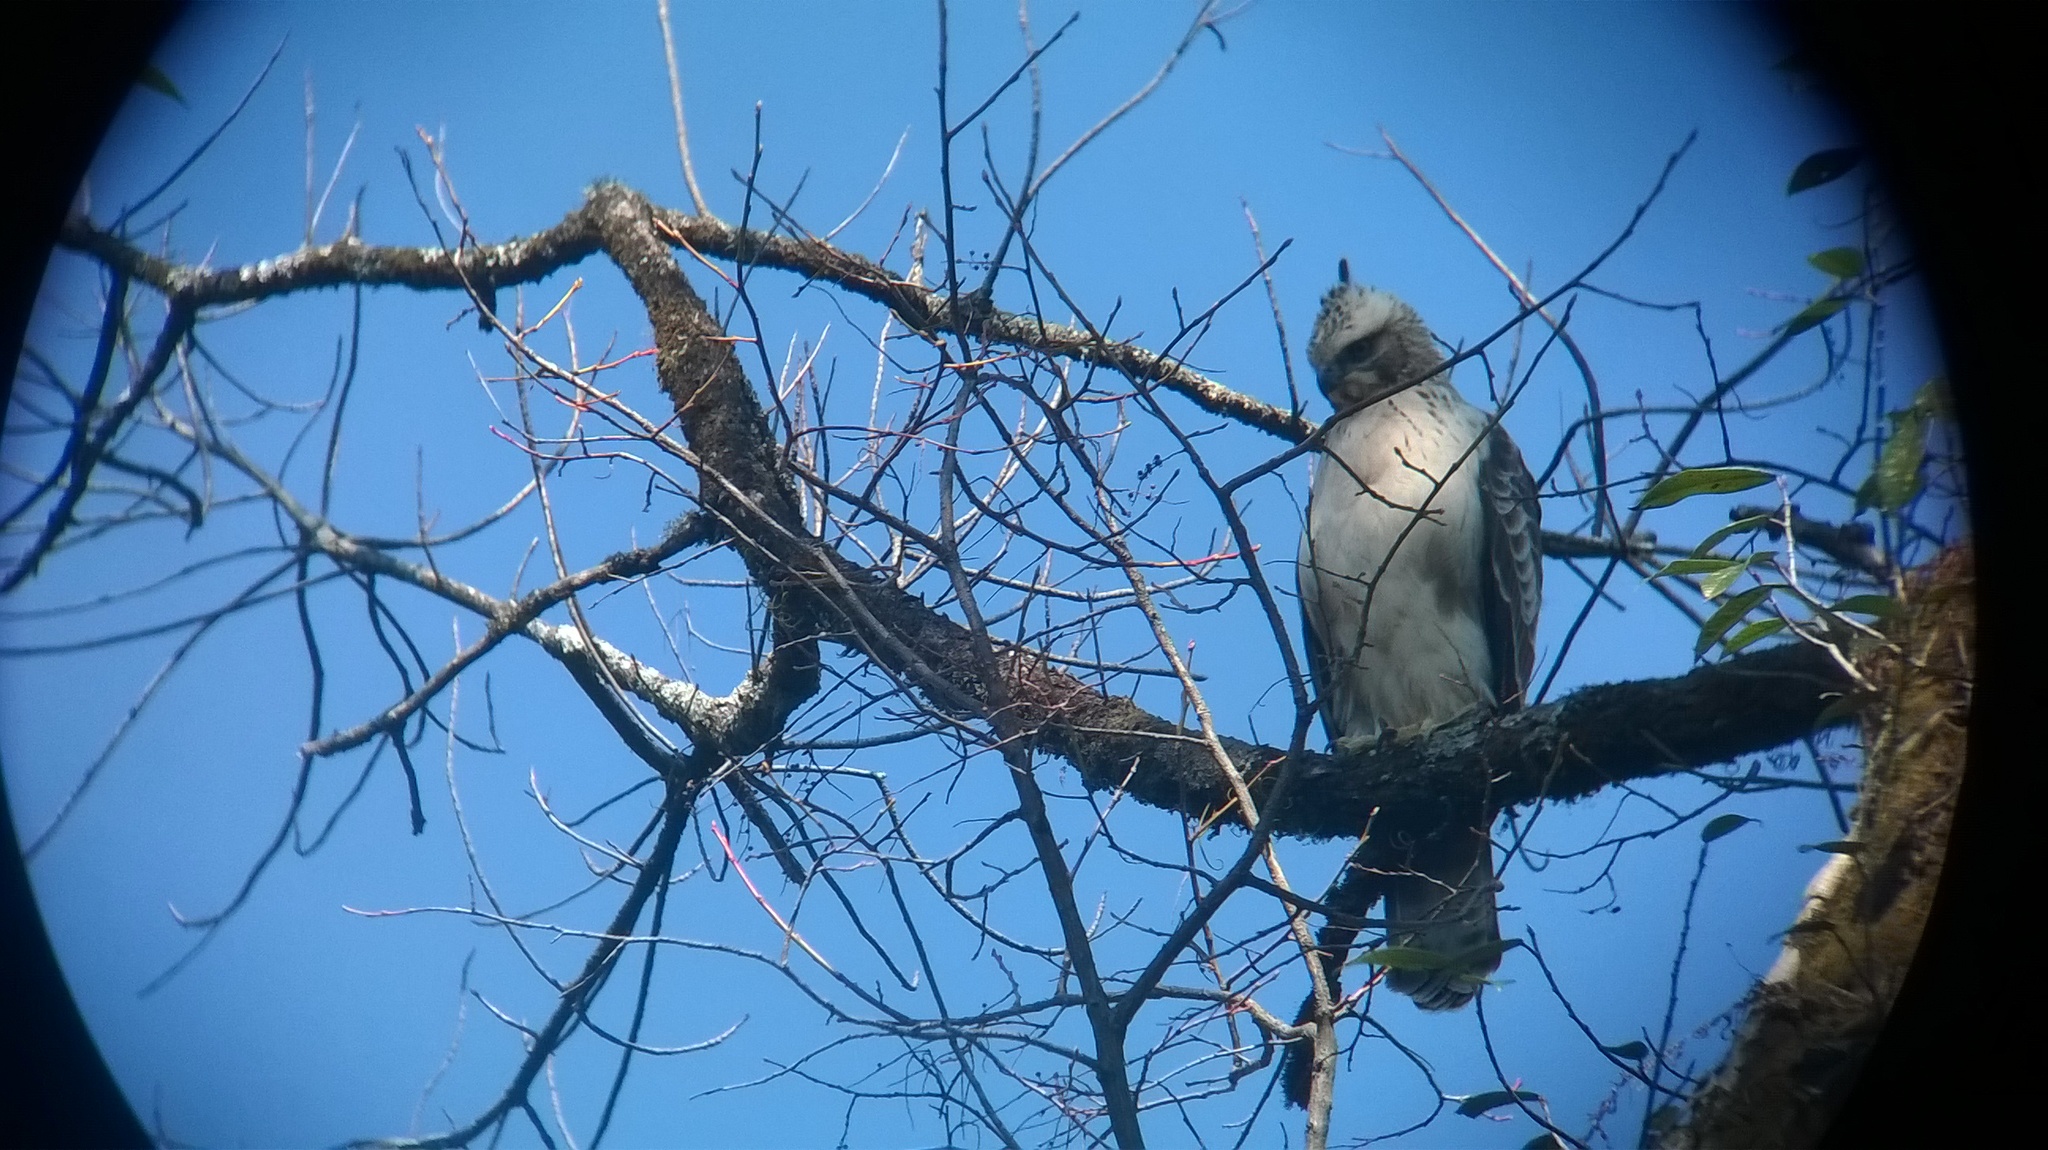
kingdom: Animalia
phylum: Chordata
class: Aves
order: Accipitriformes
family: Accipitridae
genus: Nisaetus
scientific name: Nisaetus nipalensis
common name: Mountain hawk-eagle
